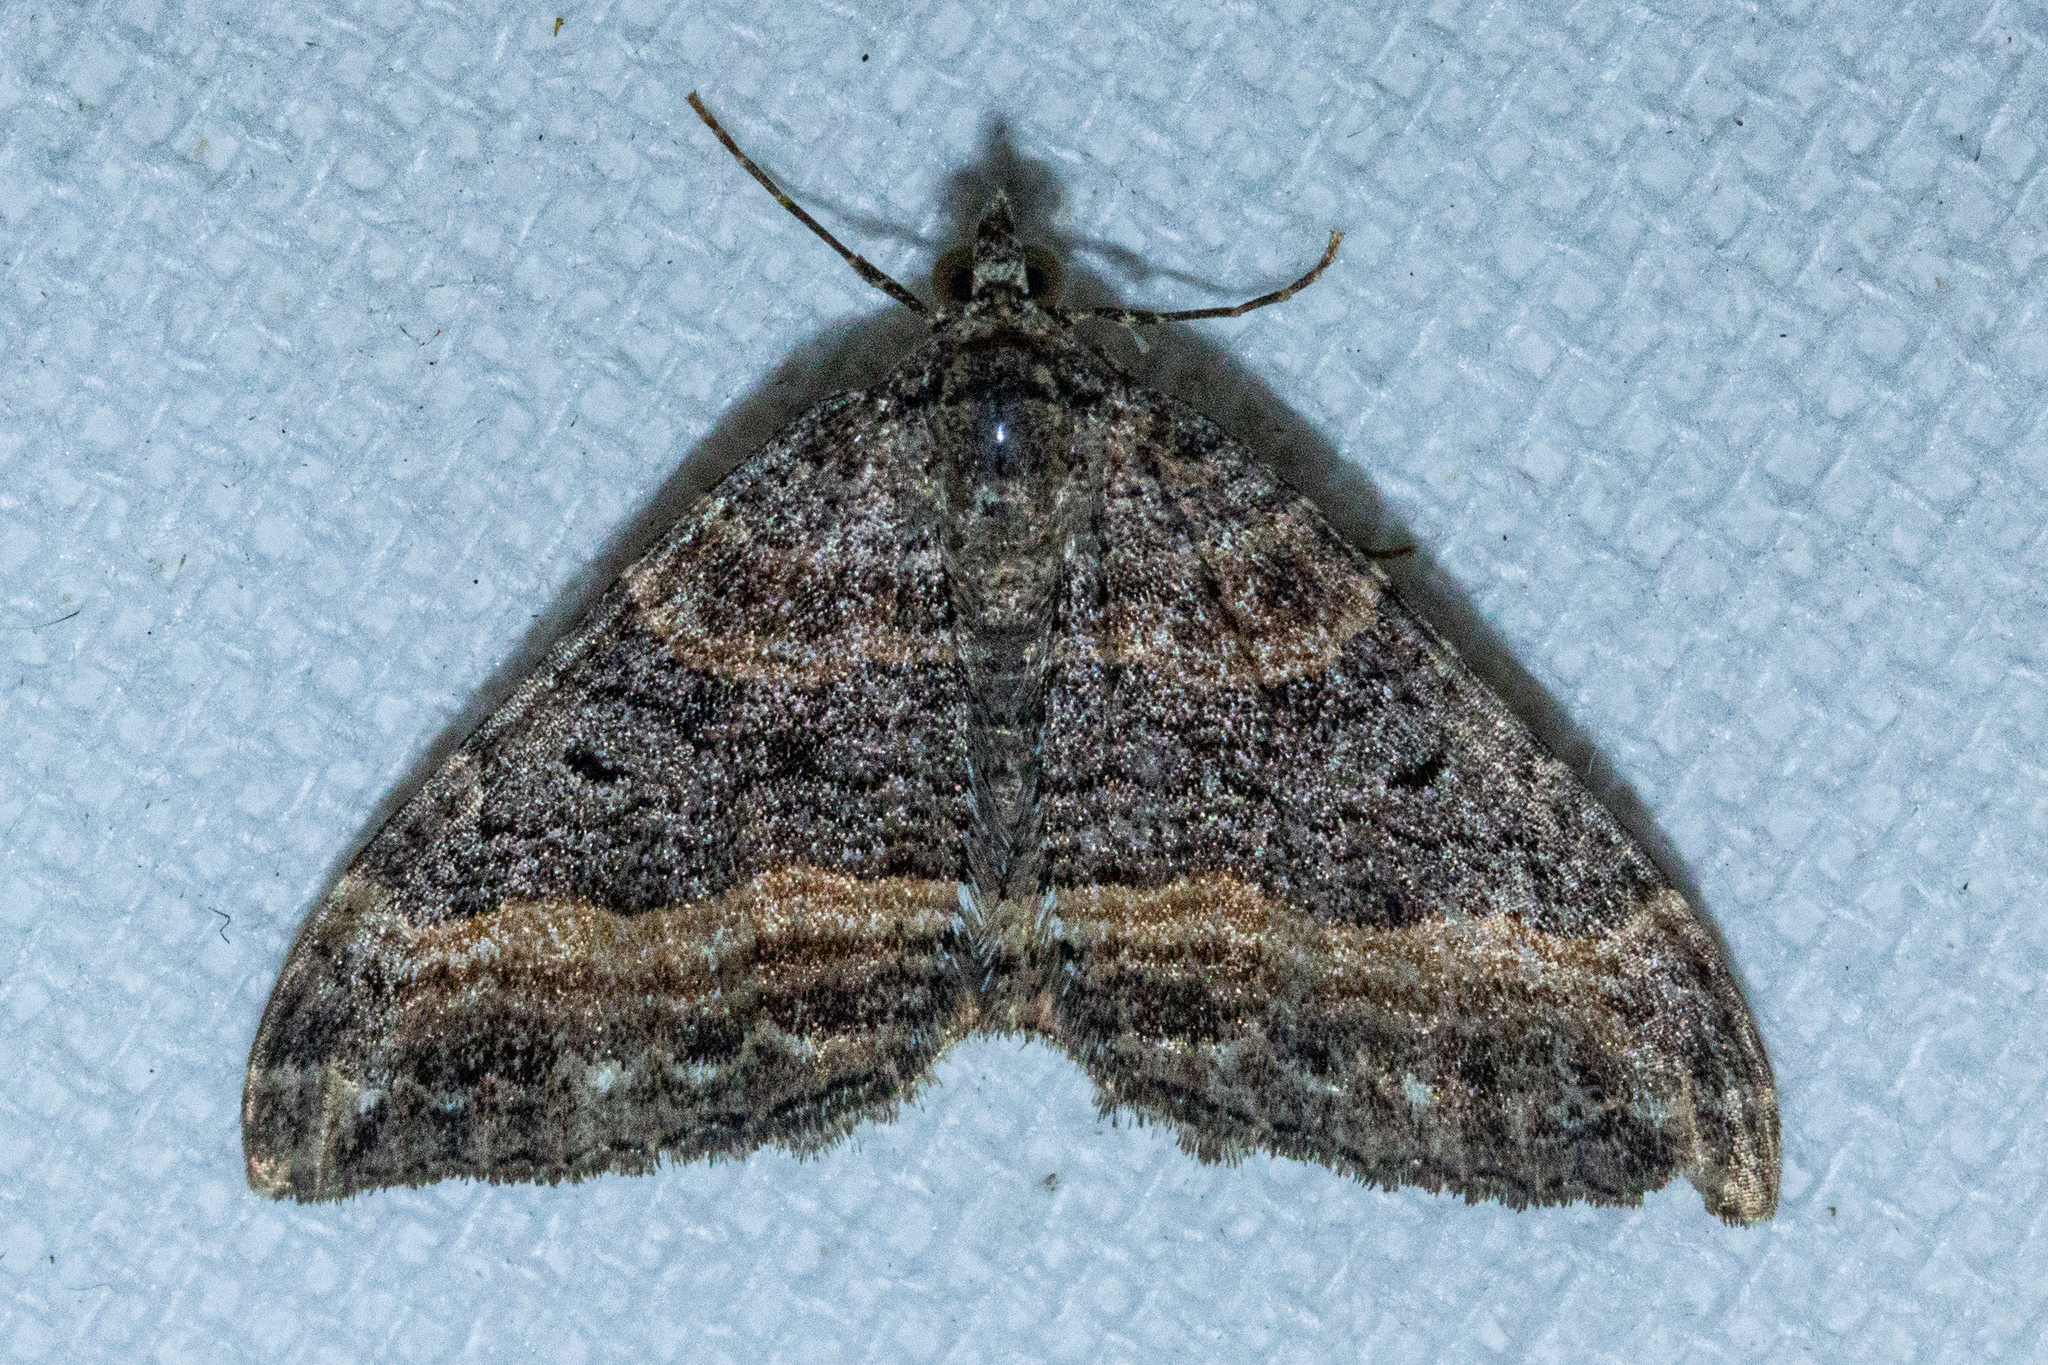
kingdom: Animalia
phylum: Arthropoda
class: Insecta
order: Lepidoptera
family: Geometridae
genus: Hydriomena
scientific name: Hydriomena deltoidata
